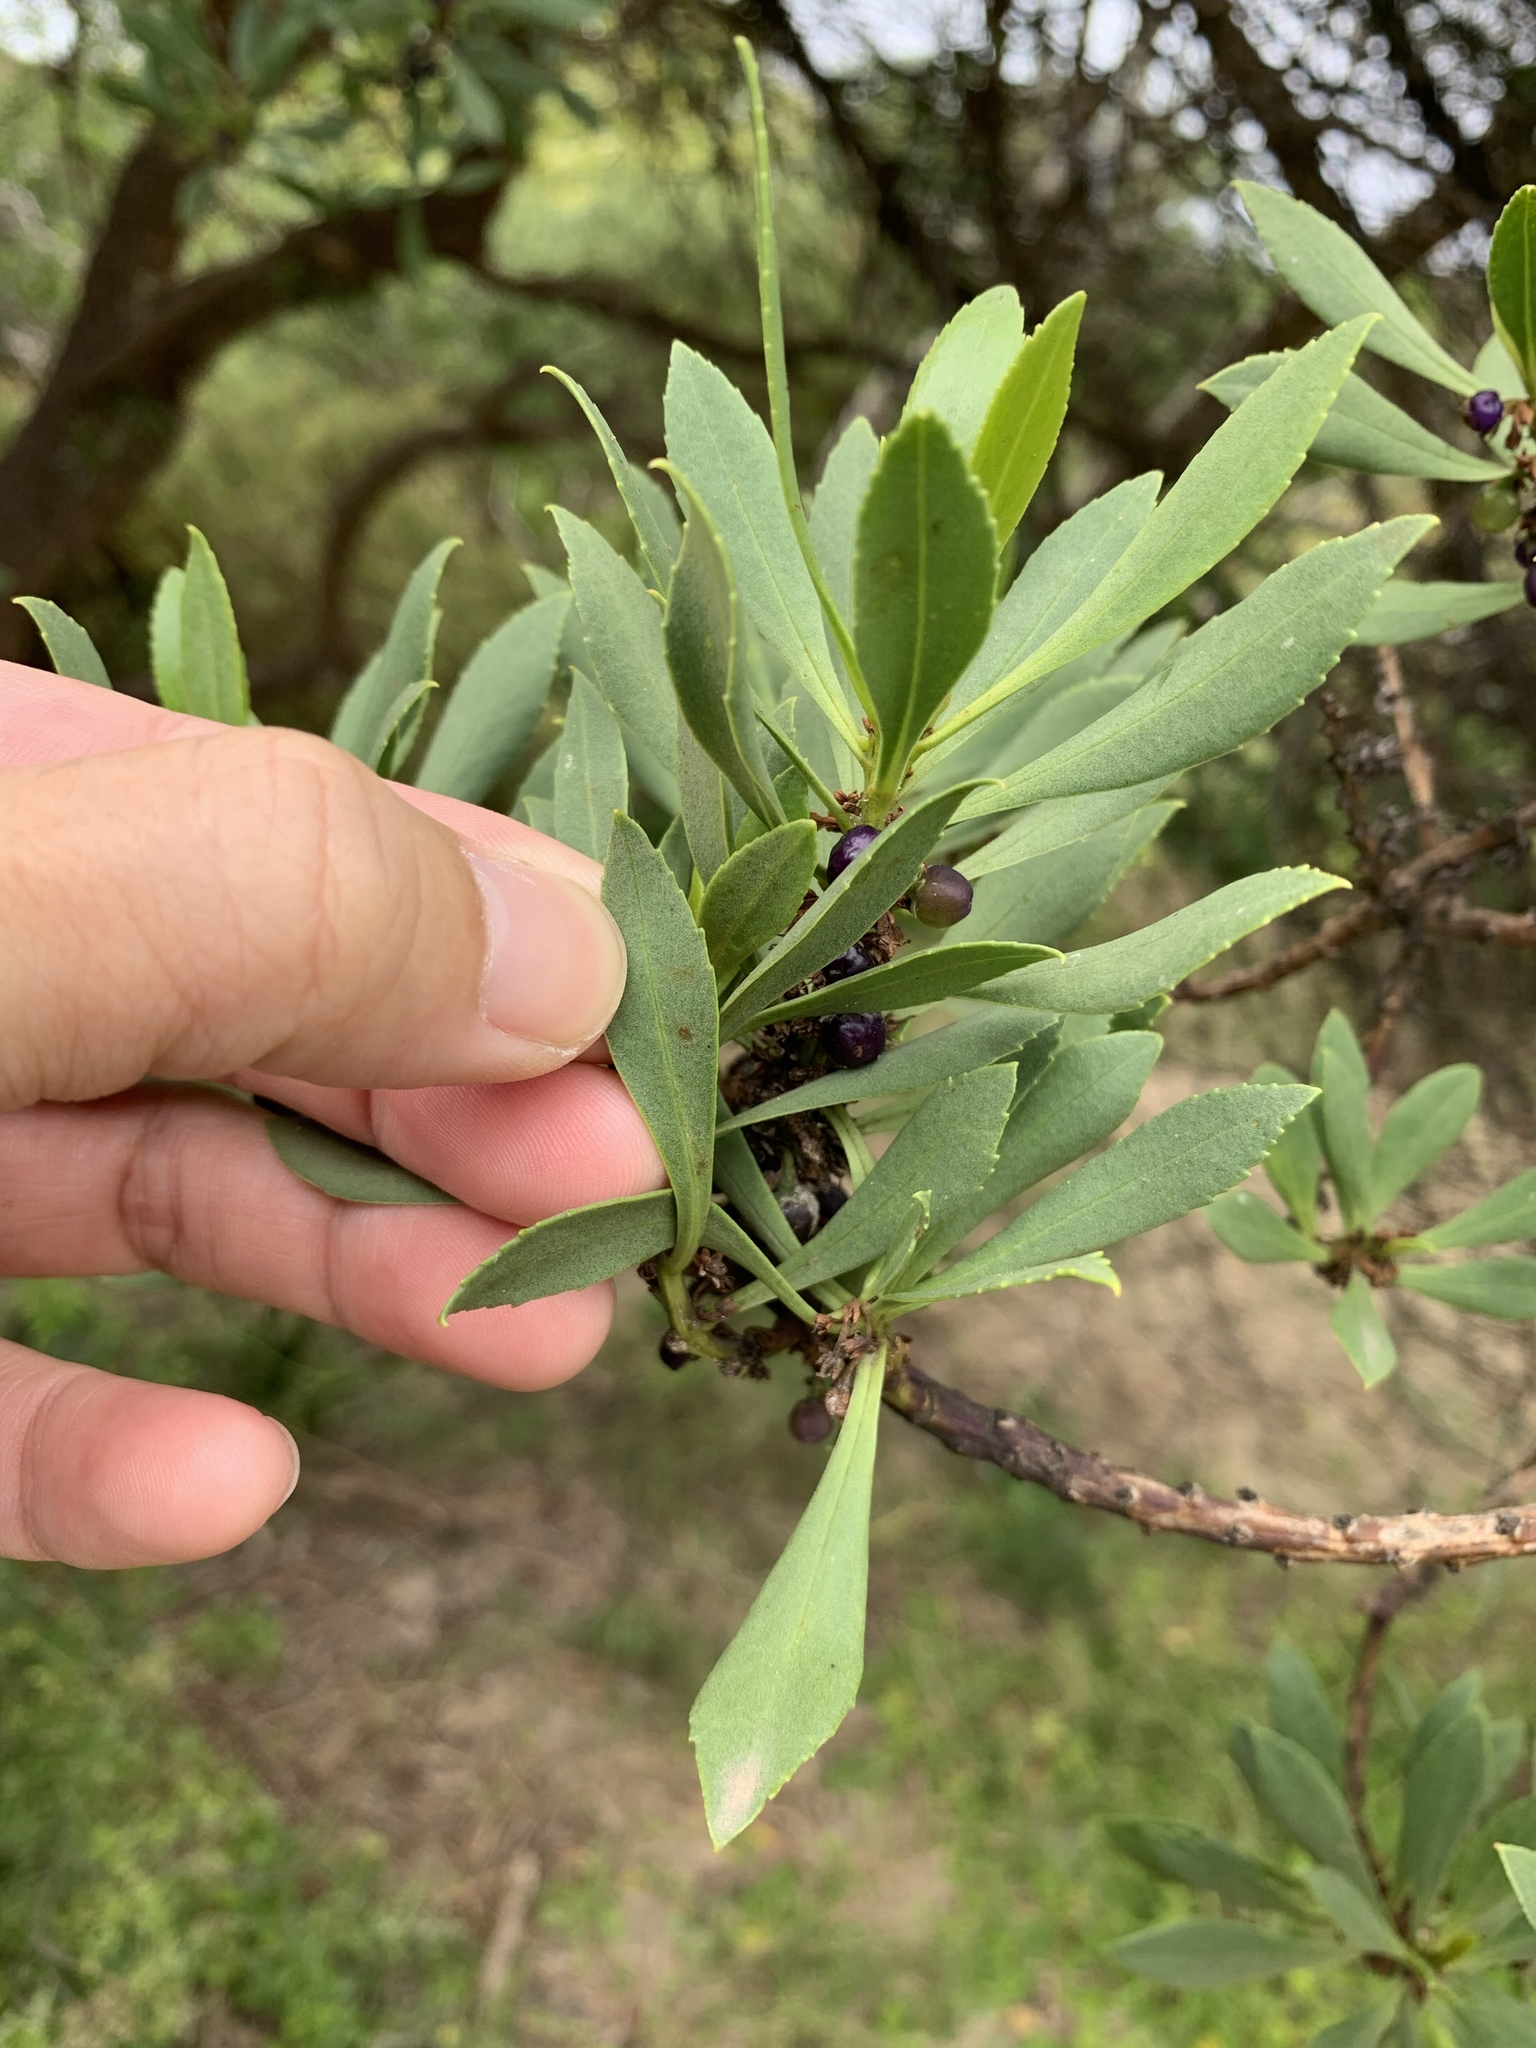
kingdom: Plantae
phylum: Tracheophyta
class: Magnoliopsida
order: Lamiales
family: Scrophulariaceae
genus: Myoporum
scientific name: Myoporum insulare
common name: Common boobialla
